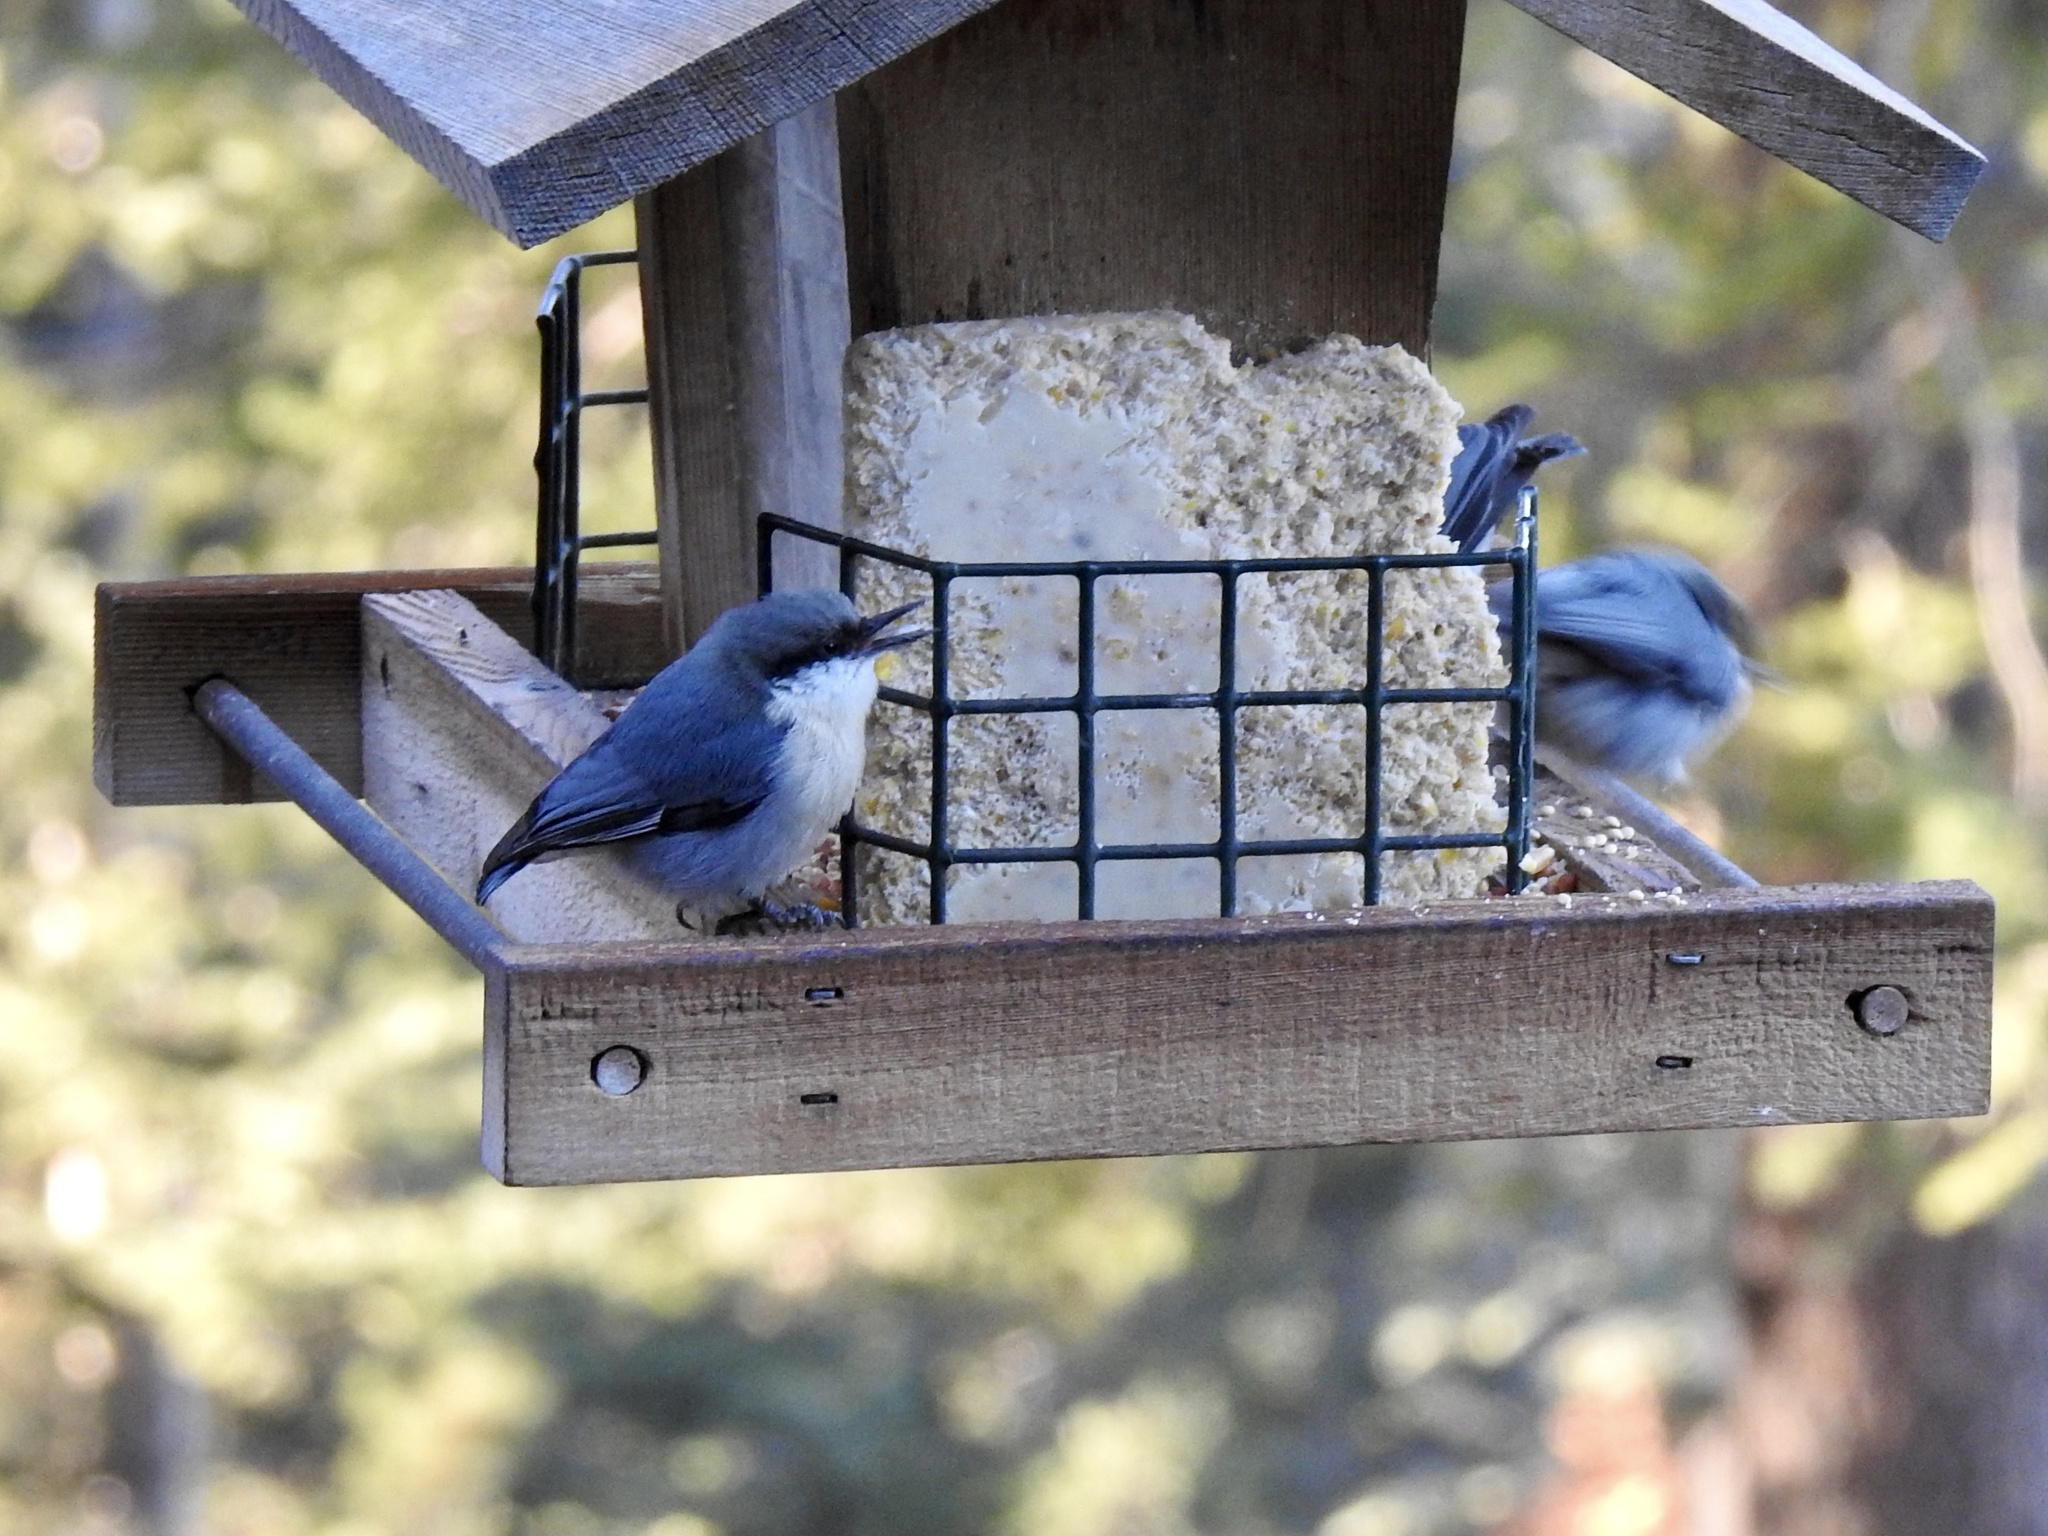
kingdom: Animalia
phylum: Chordata
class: Aves
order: Passeriformes
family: Sittidae
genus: Sitta
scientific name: Sitta pygmaea
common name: Pygmy nuthatch
